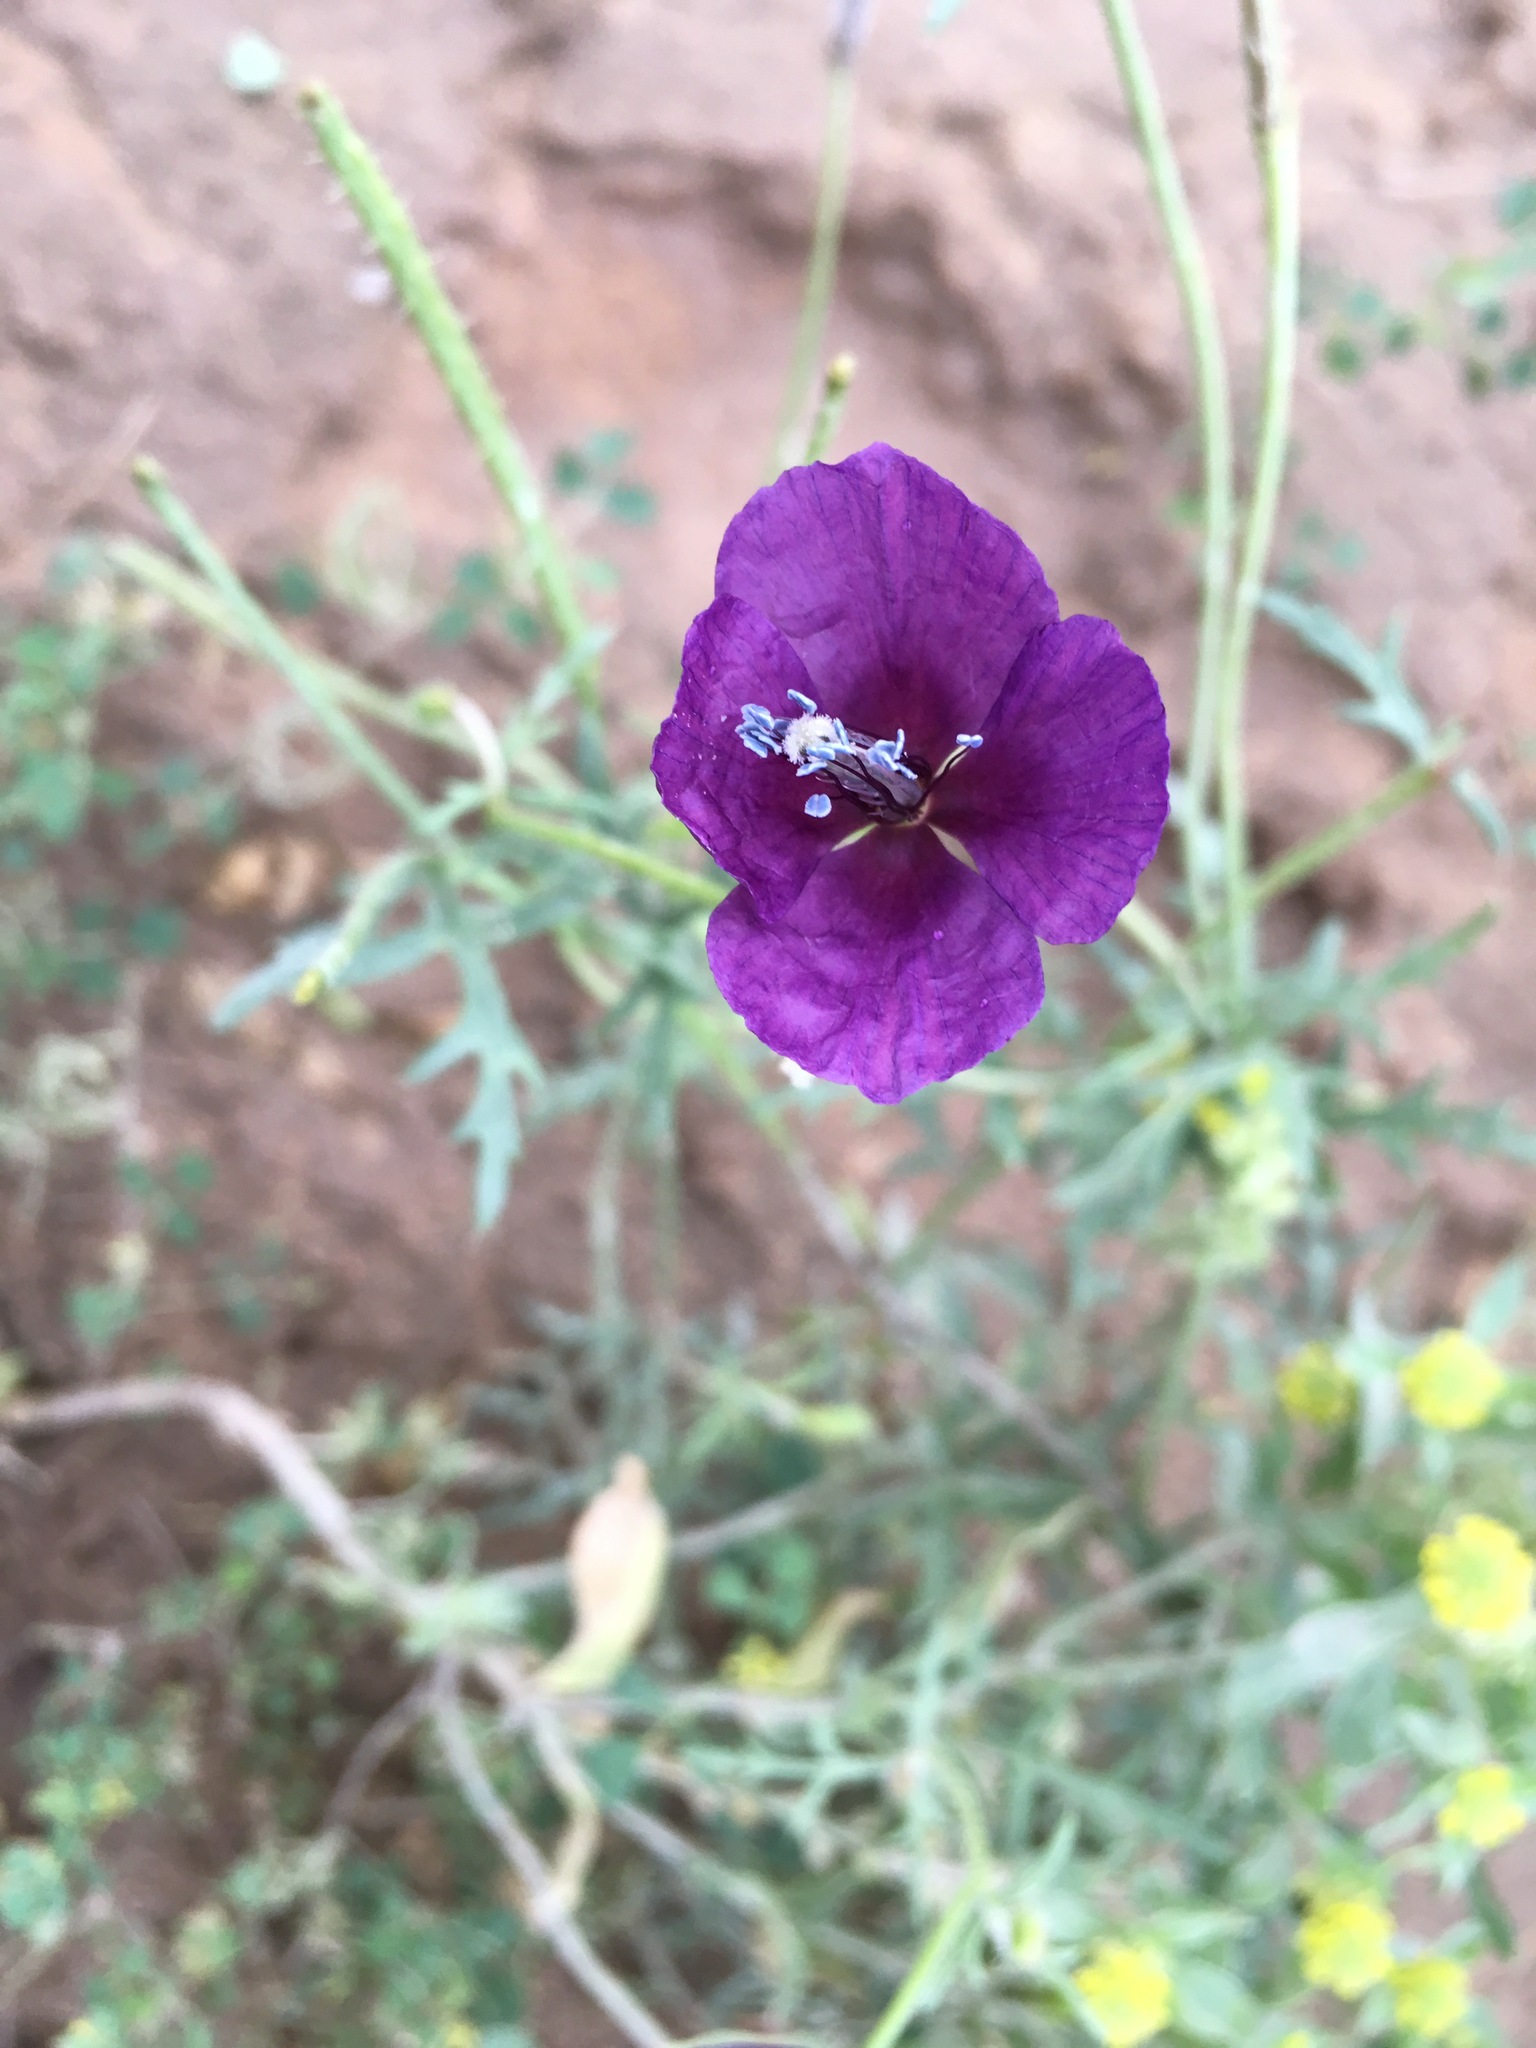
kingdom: Plantae
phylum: Tracheophyta
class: Magnoliopsida
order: Ranunculales
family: Papaveraceae
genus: Roemeria
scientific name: Roemeria hybrida
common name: Violet horned-poppy
